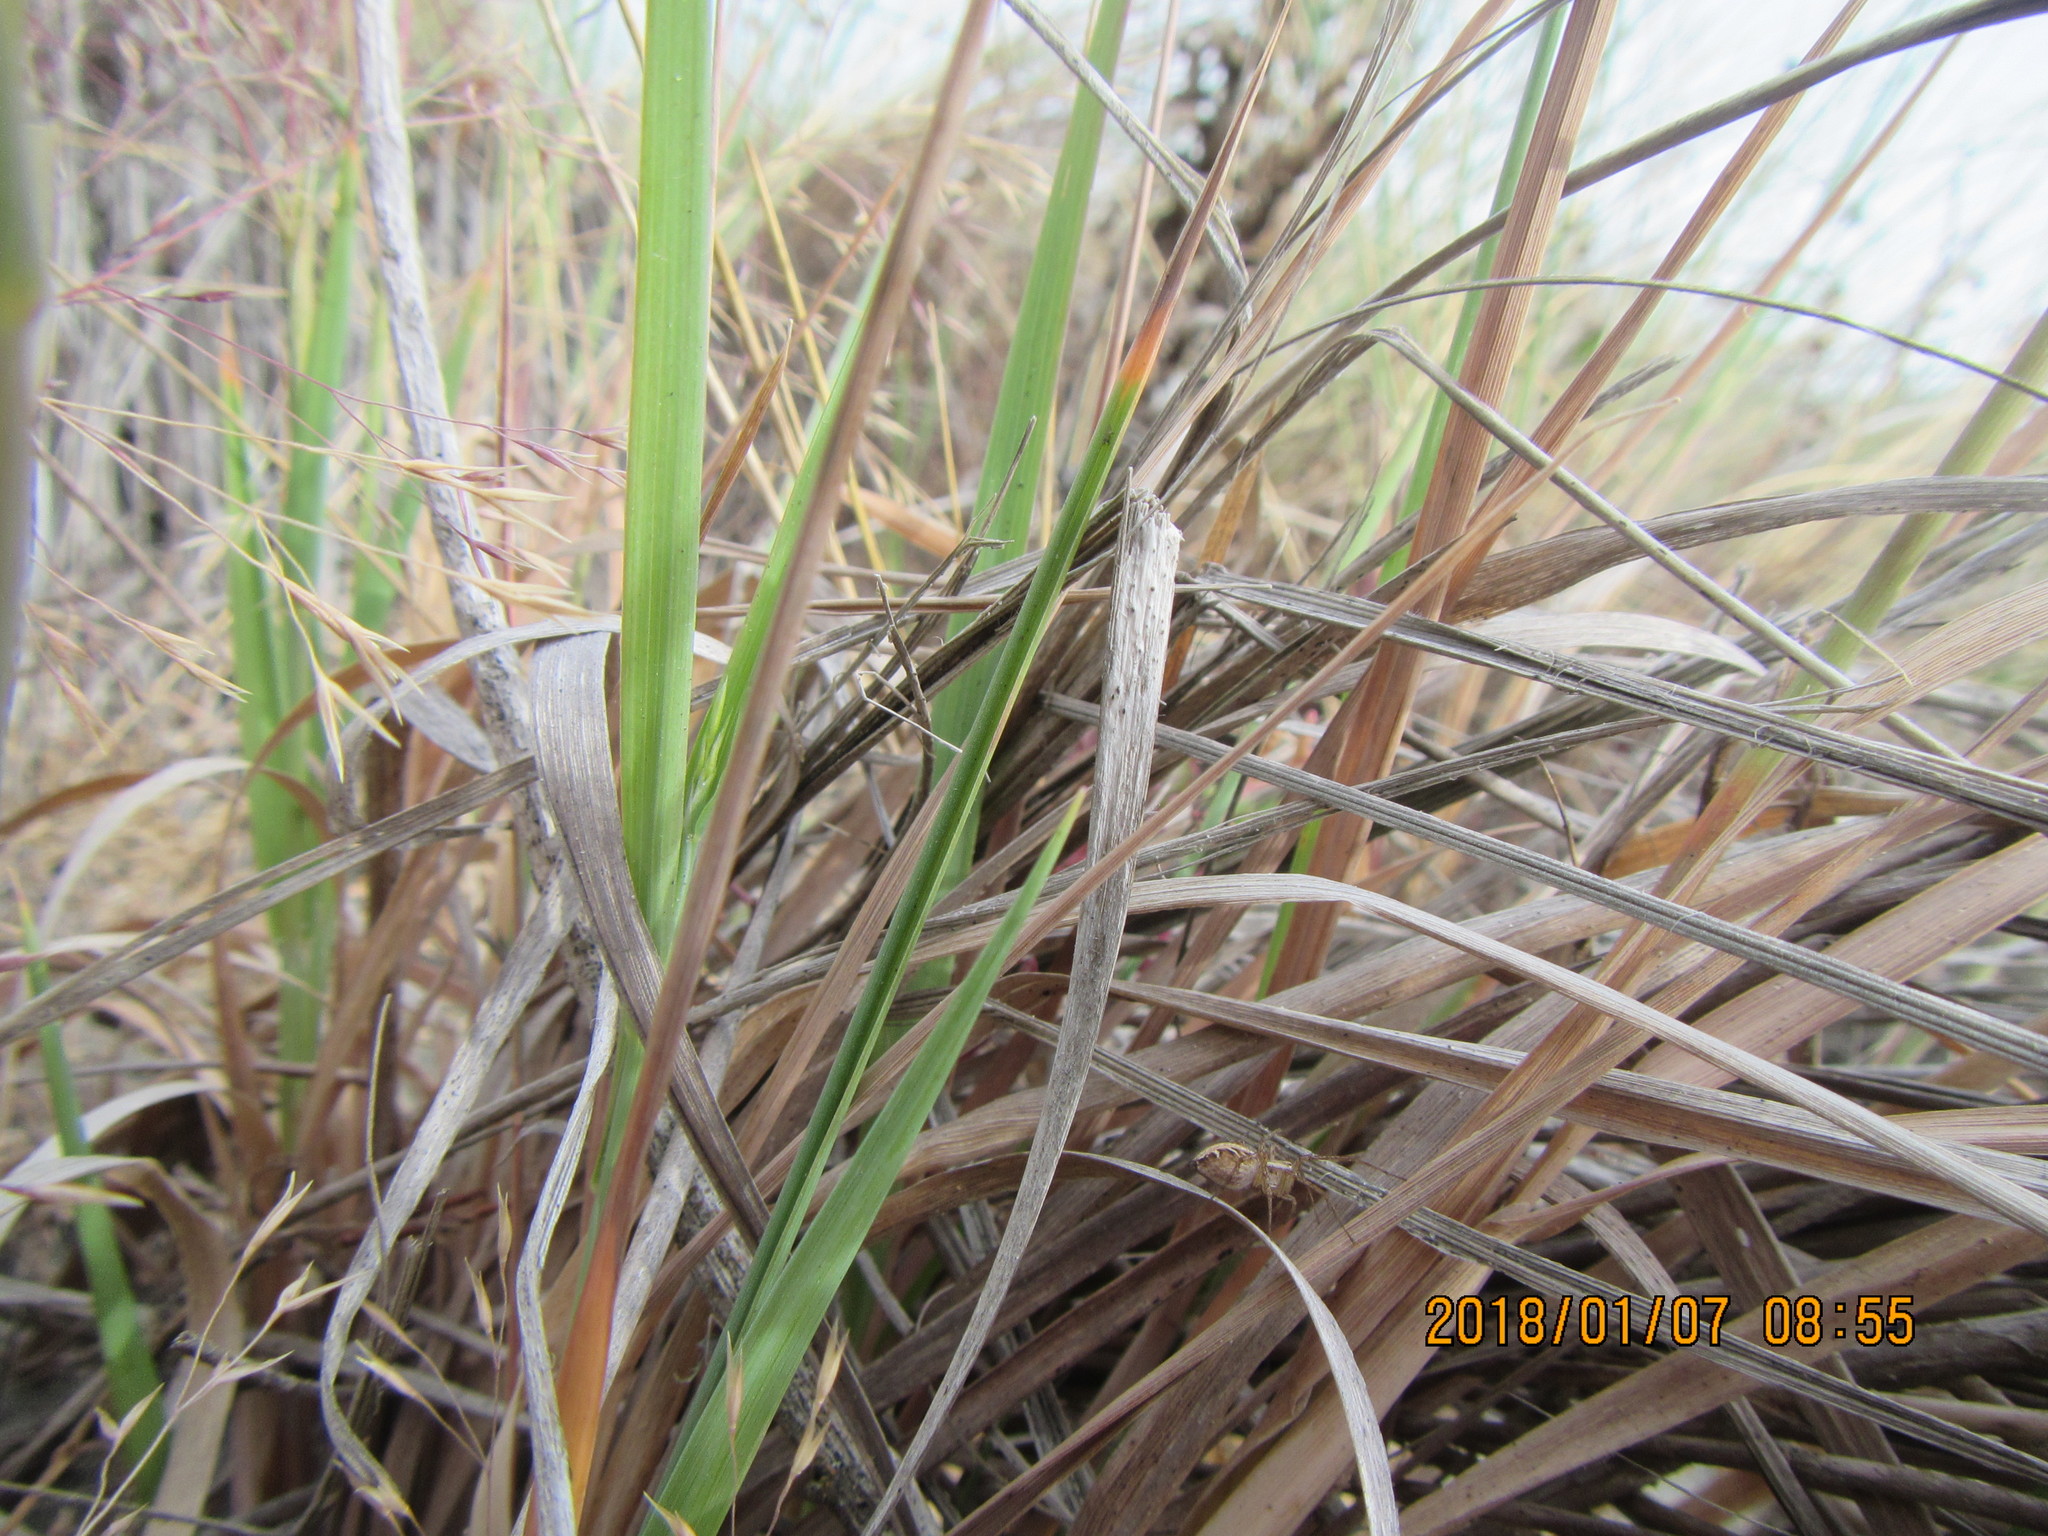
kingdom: Animalia
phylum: Arthropoda
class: Arachnida
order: Araneae
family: Oxyopidae
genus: Oxyopes
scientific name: Oxyopes gracilipes
